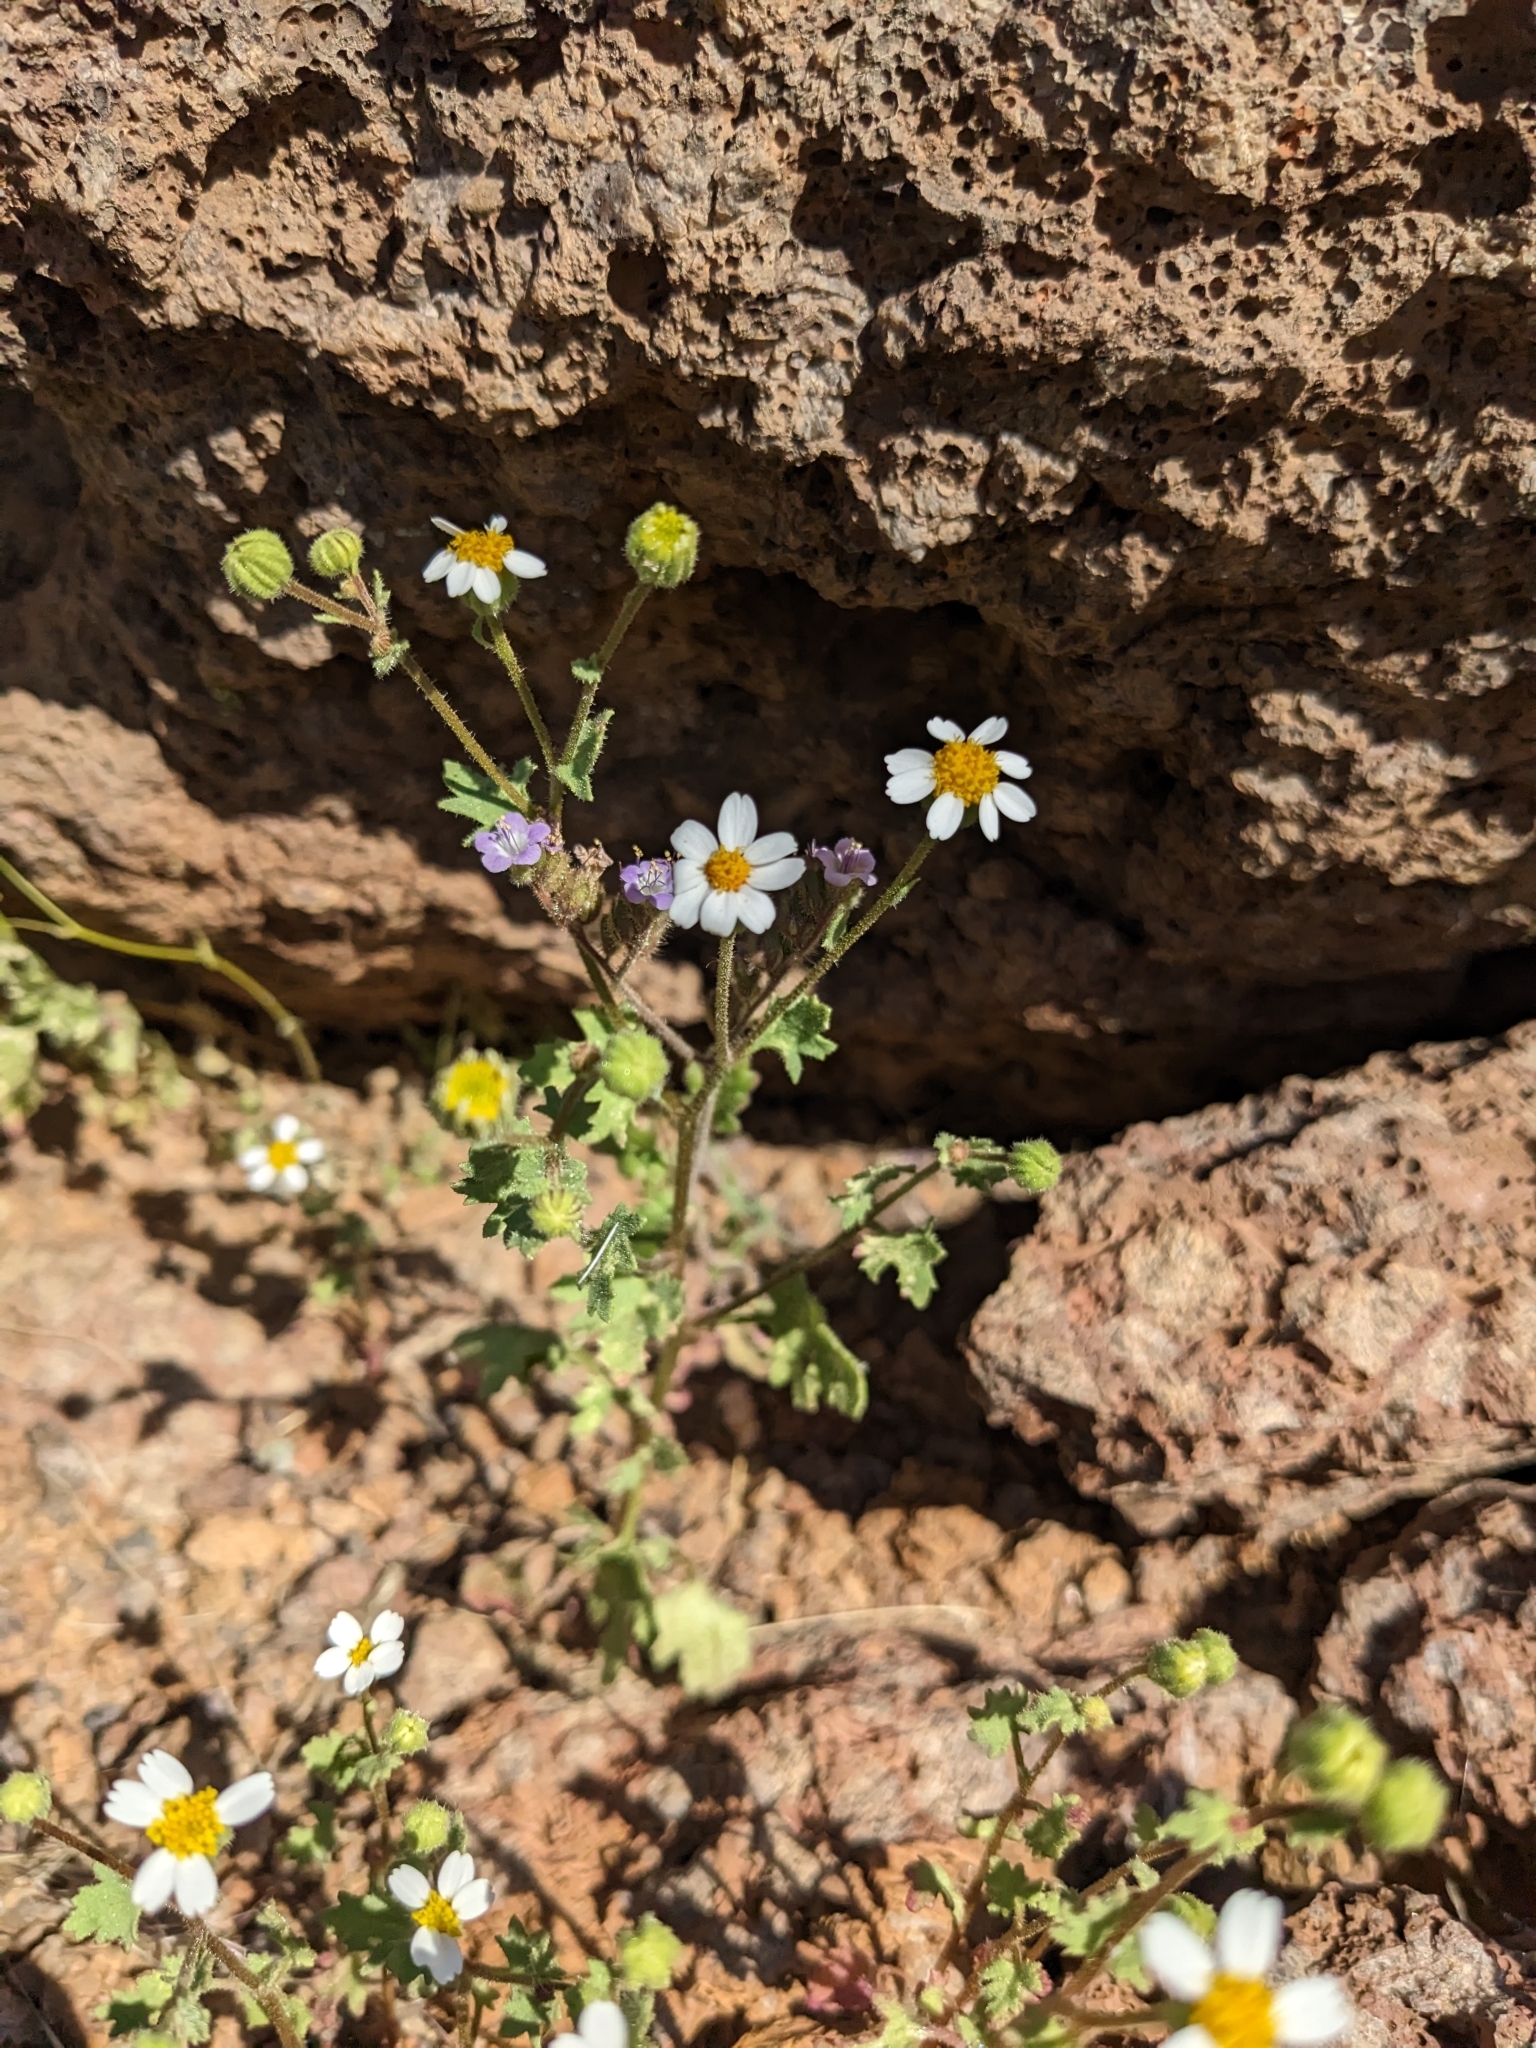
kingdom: Plantae
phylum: Tracheophyta
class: Magnoliopsida
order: Asterales
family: Asteraceae
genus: Laphamia
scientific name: Laphamia emoryi
